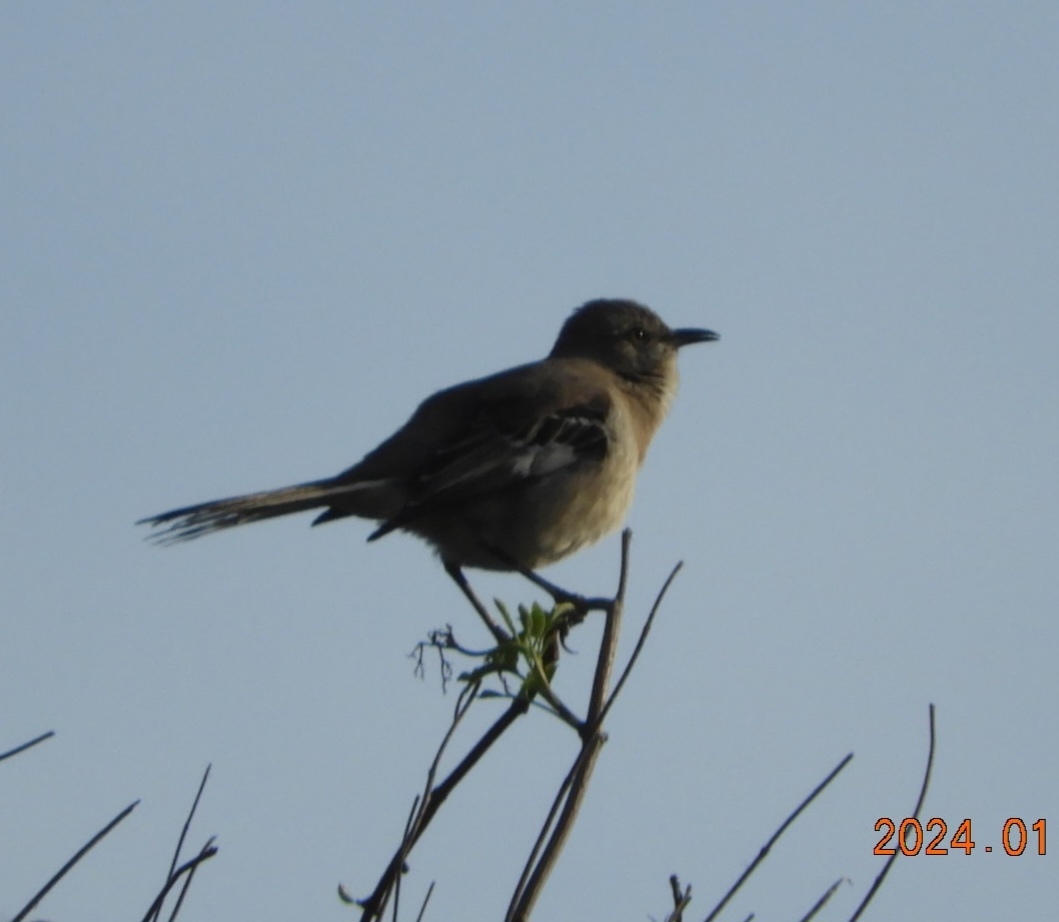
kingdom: Animalia
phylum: Chordata
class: Aves
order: Passeriformes
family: Mimidae
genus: Mimus
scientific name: Mimus polyglottos
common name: Northern mockingbird
